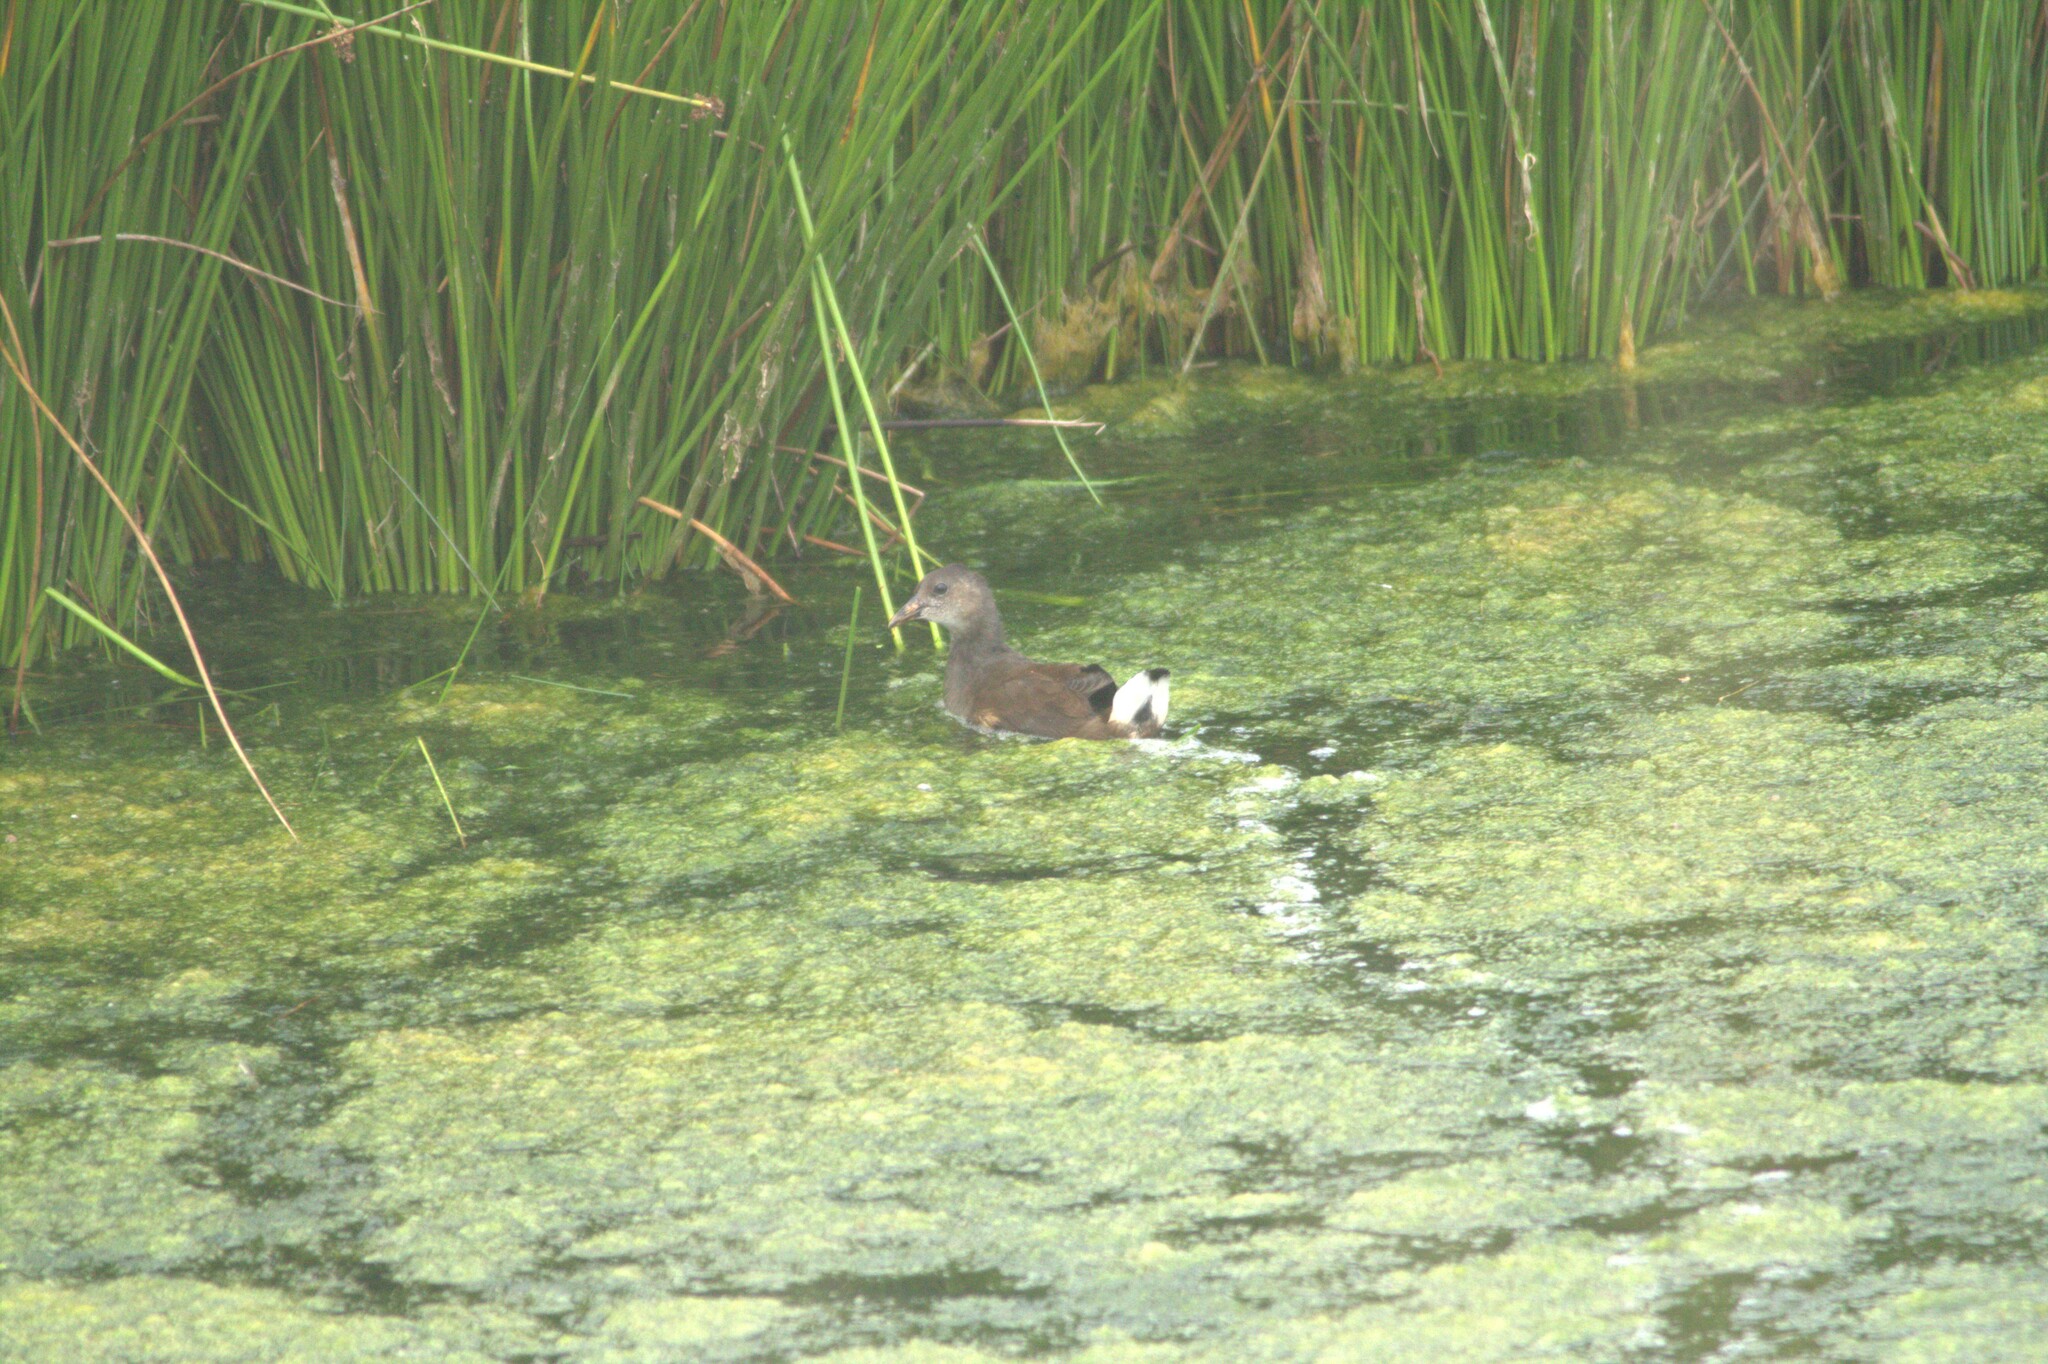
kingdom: Animalia
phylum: Chordata
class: Aves
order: Gruiformes
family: Rallidae
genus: Gallinula
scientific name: Gallinula chloropus
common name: Common moorhen
